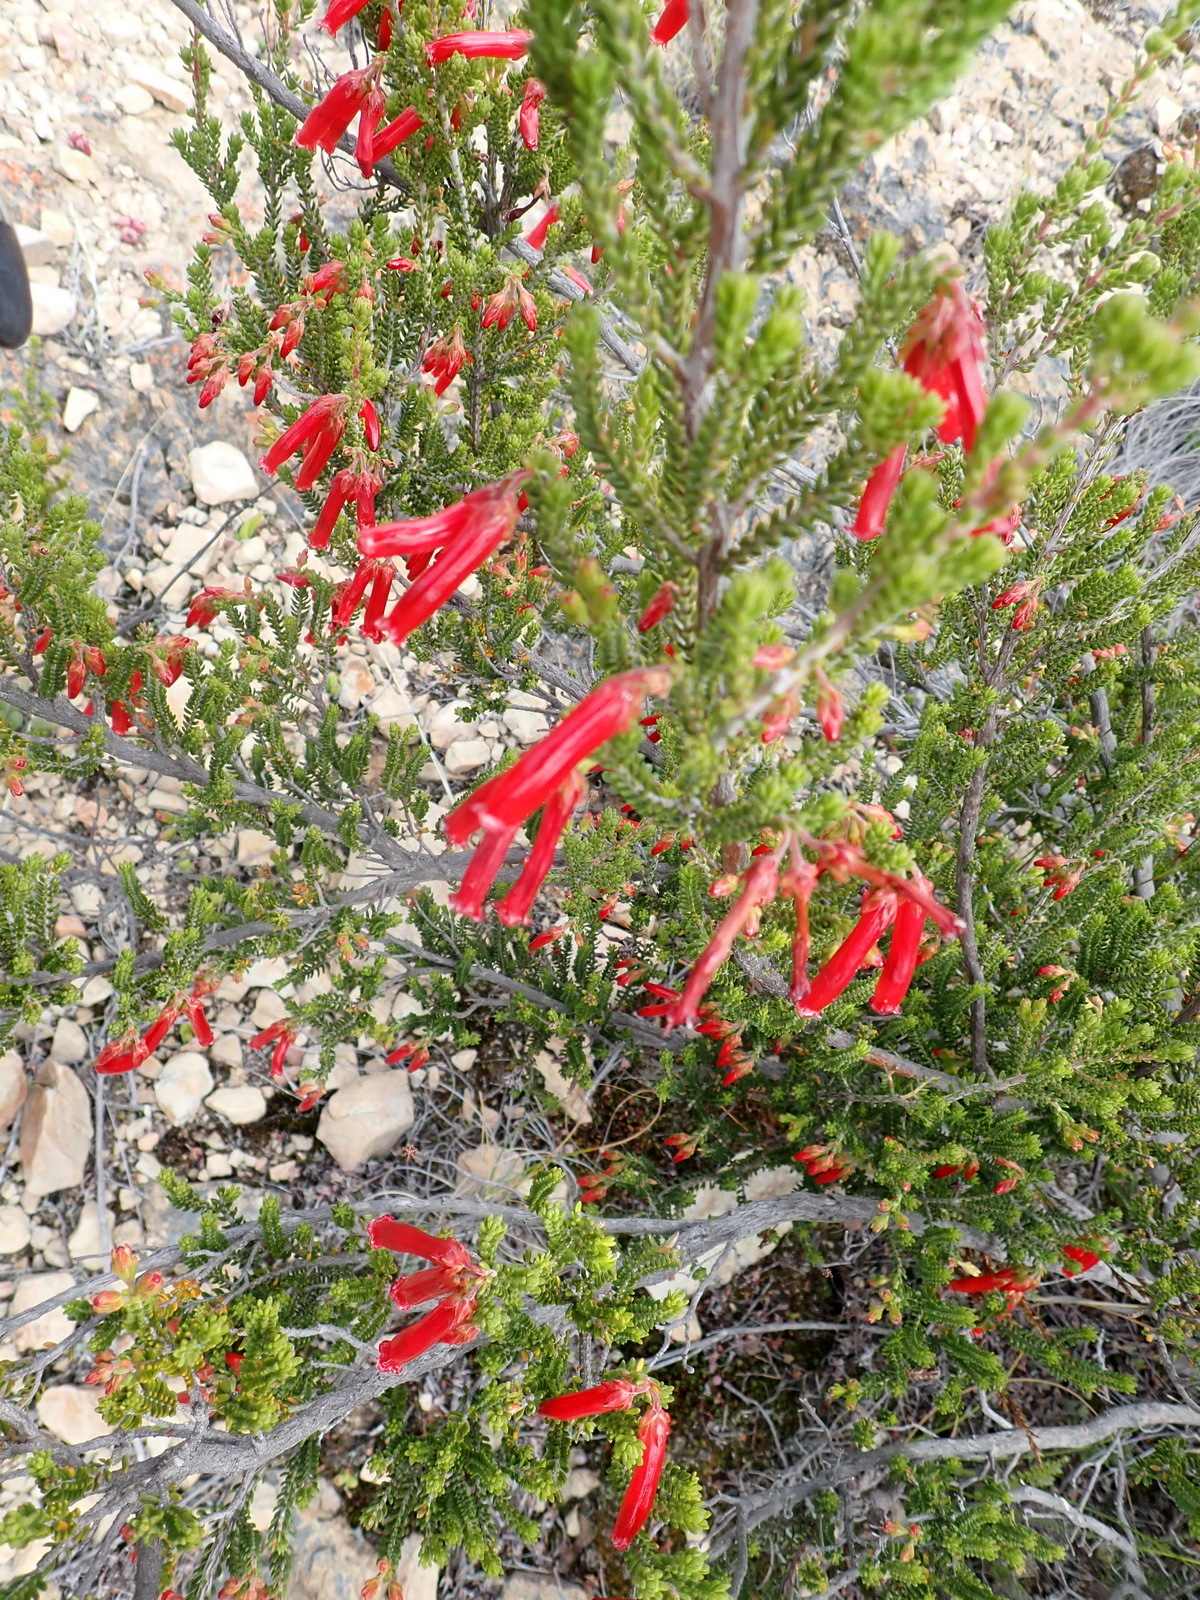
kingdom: Plantae
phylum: Tracheophyta
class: Magnoliopsida
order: Ericales
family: Ericaceae
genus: Erica
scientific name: Erica diaphana
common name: Heath
